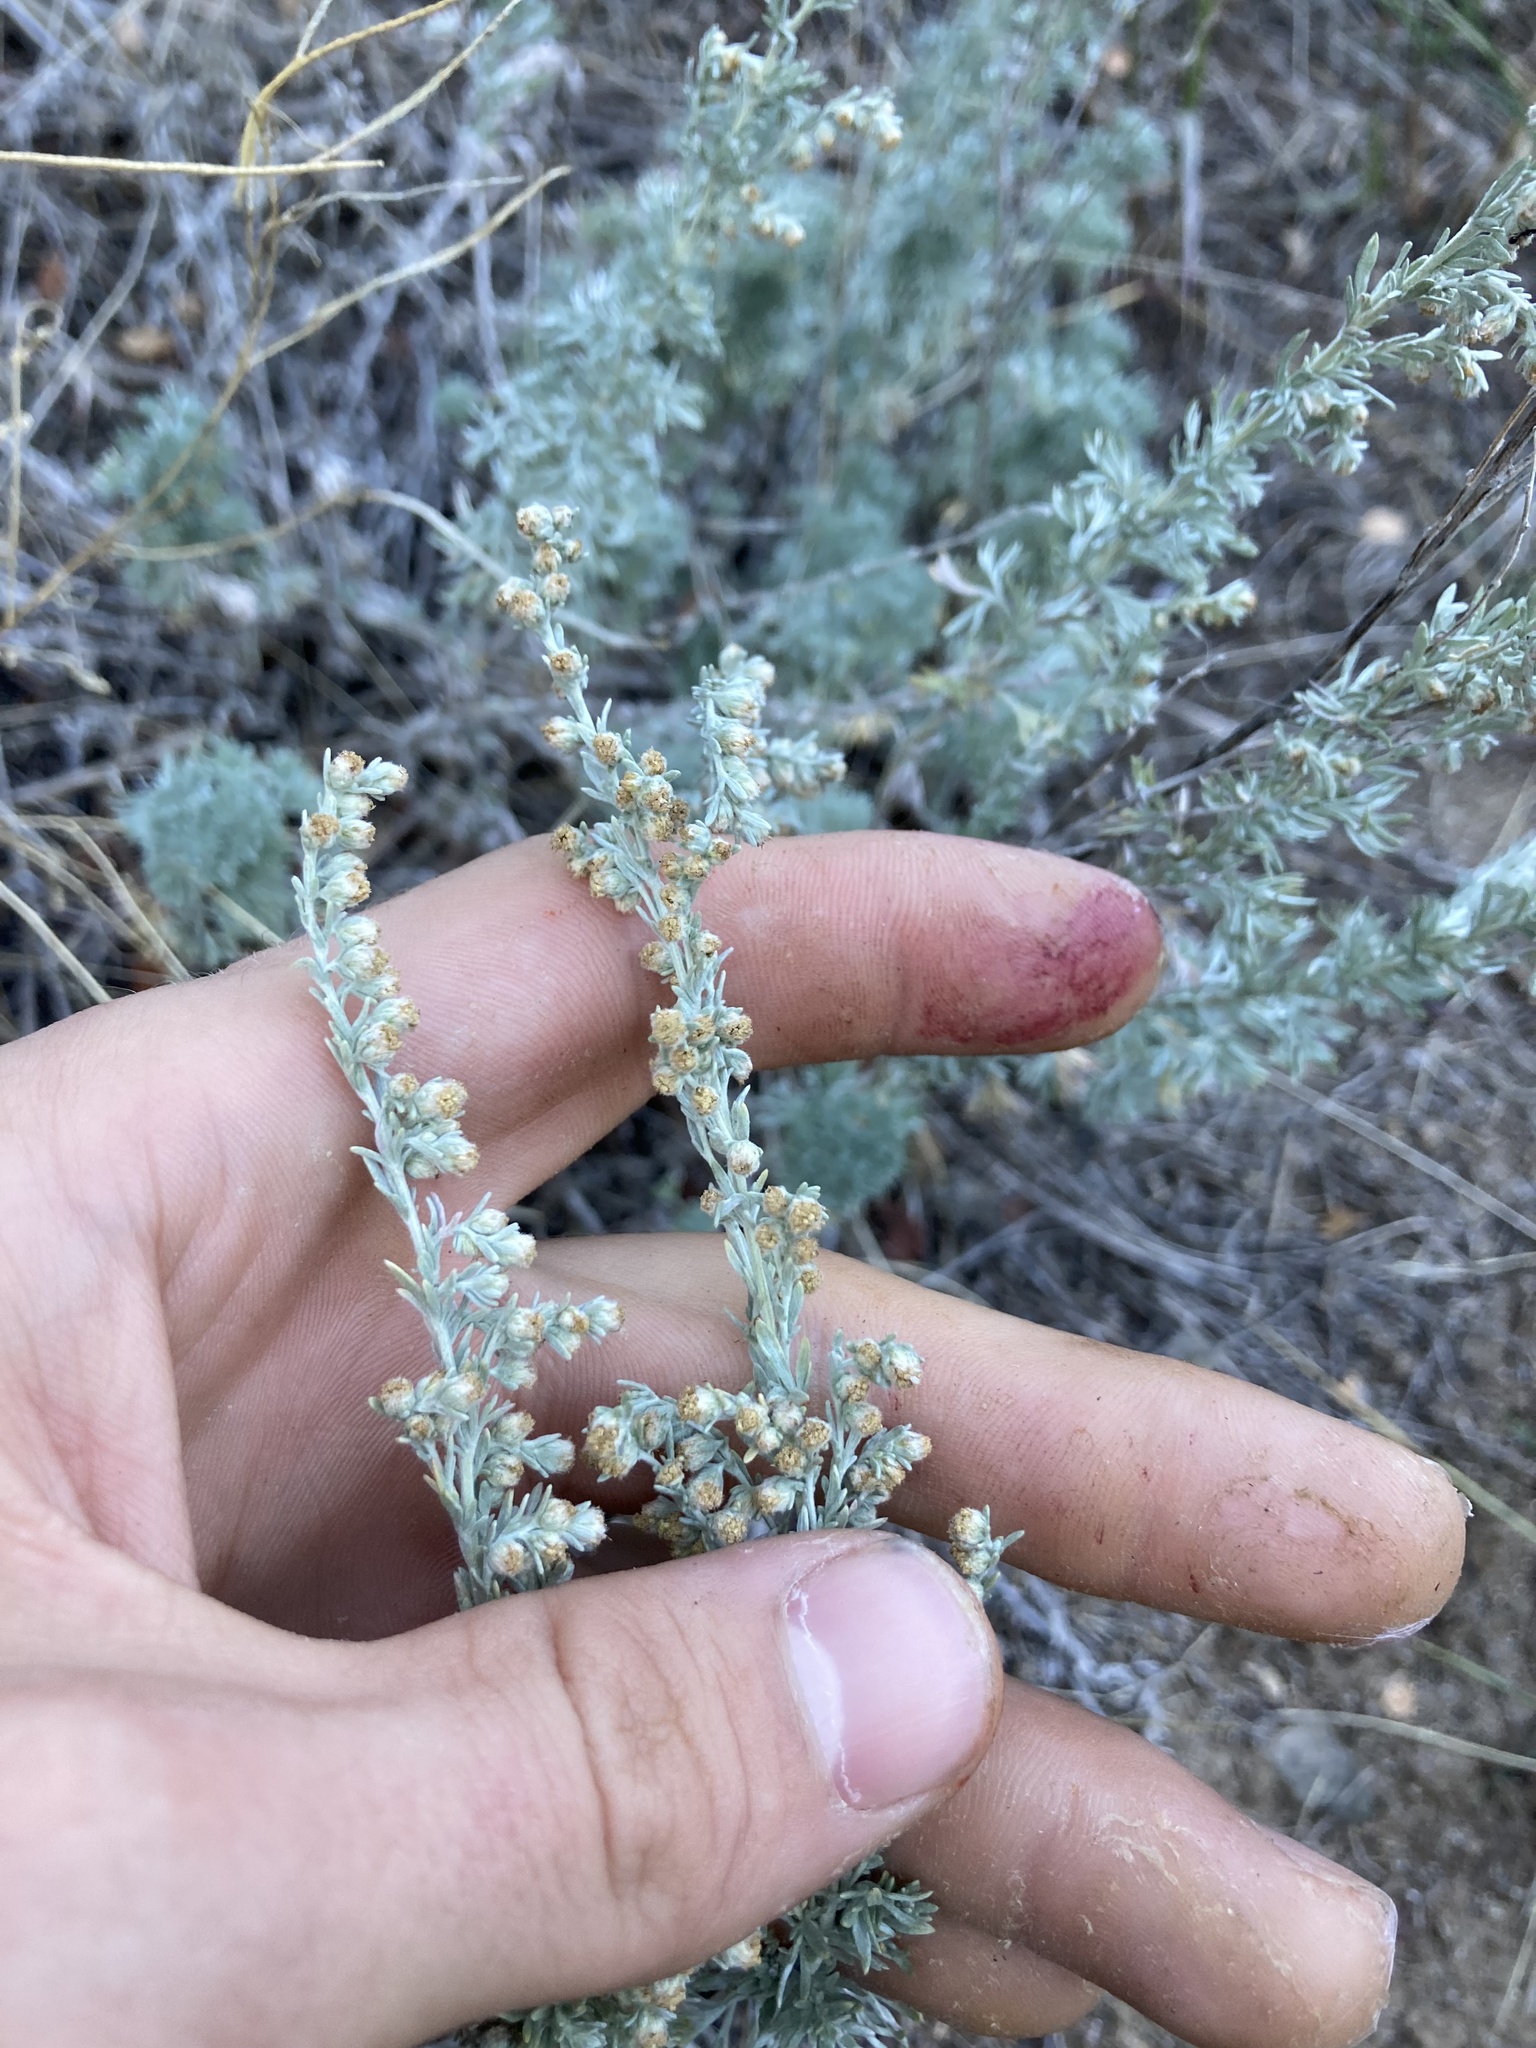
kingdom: Plantae
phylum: Tracheophyta
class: Magnoliopsida
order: Asterales
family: Asteraceae
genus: Artemisia
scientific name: Artemisia frigida
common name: Prairie sagewort
